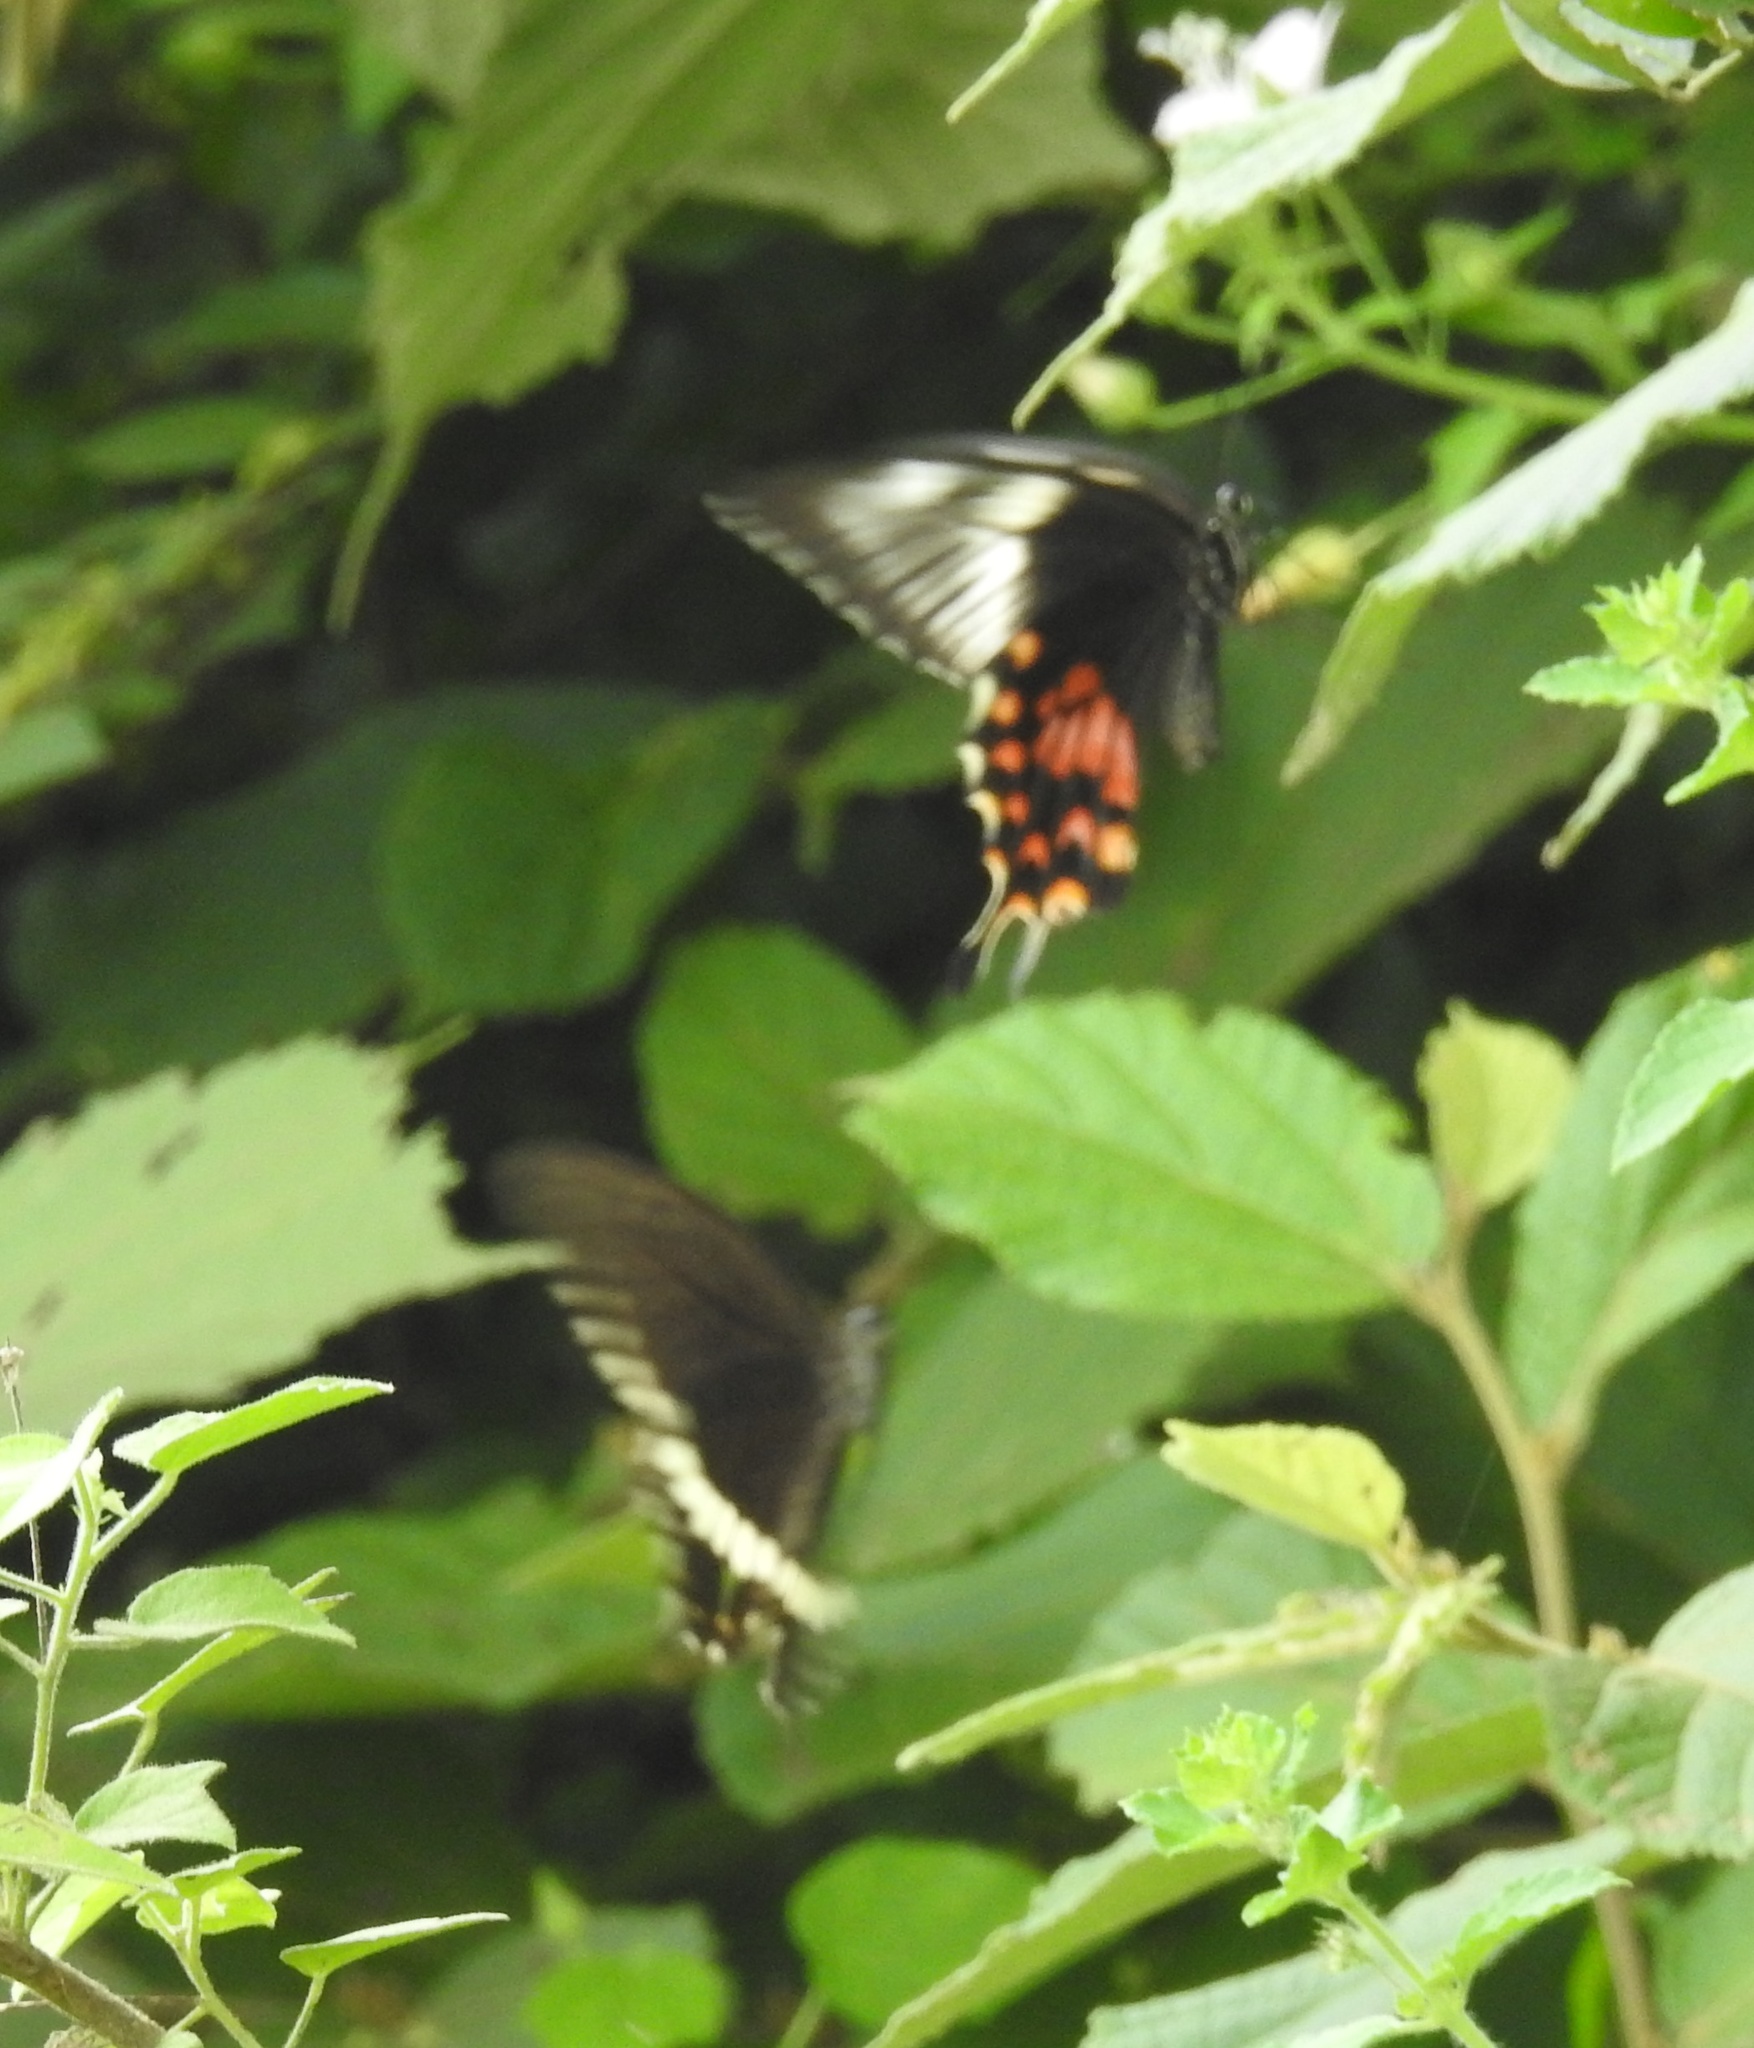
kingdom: Animalia
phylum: Arthropoda
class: Insecta
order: Lepidoptera
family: Papilionidae
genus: Papilio
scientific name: Papilio polytes
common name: Common mormon
